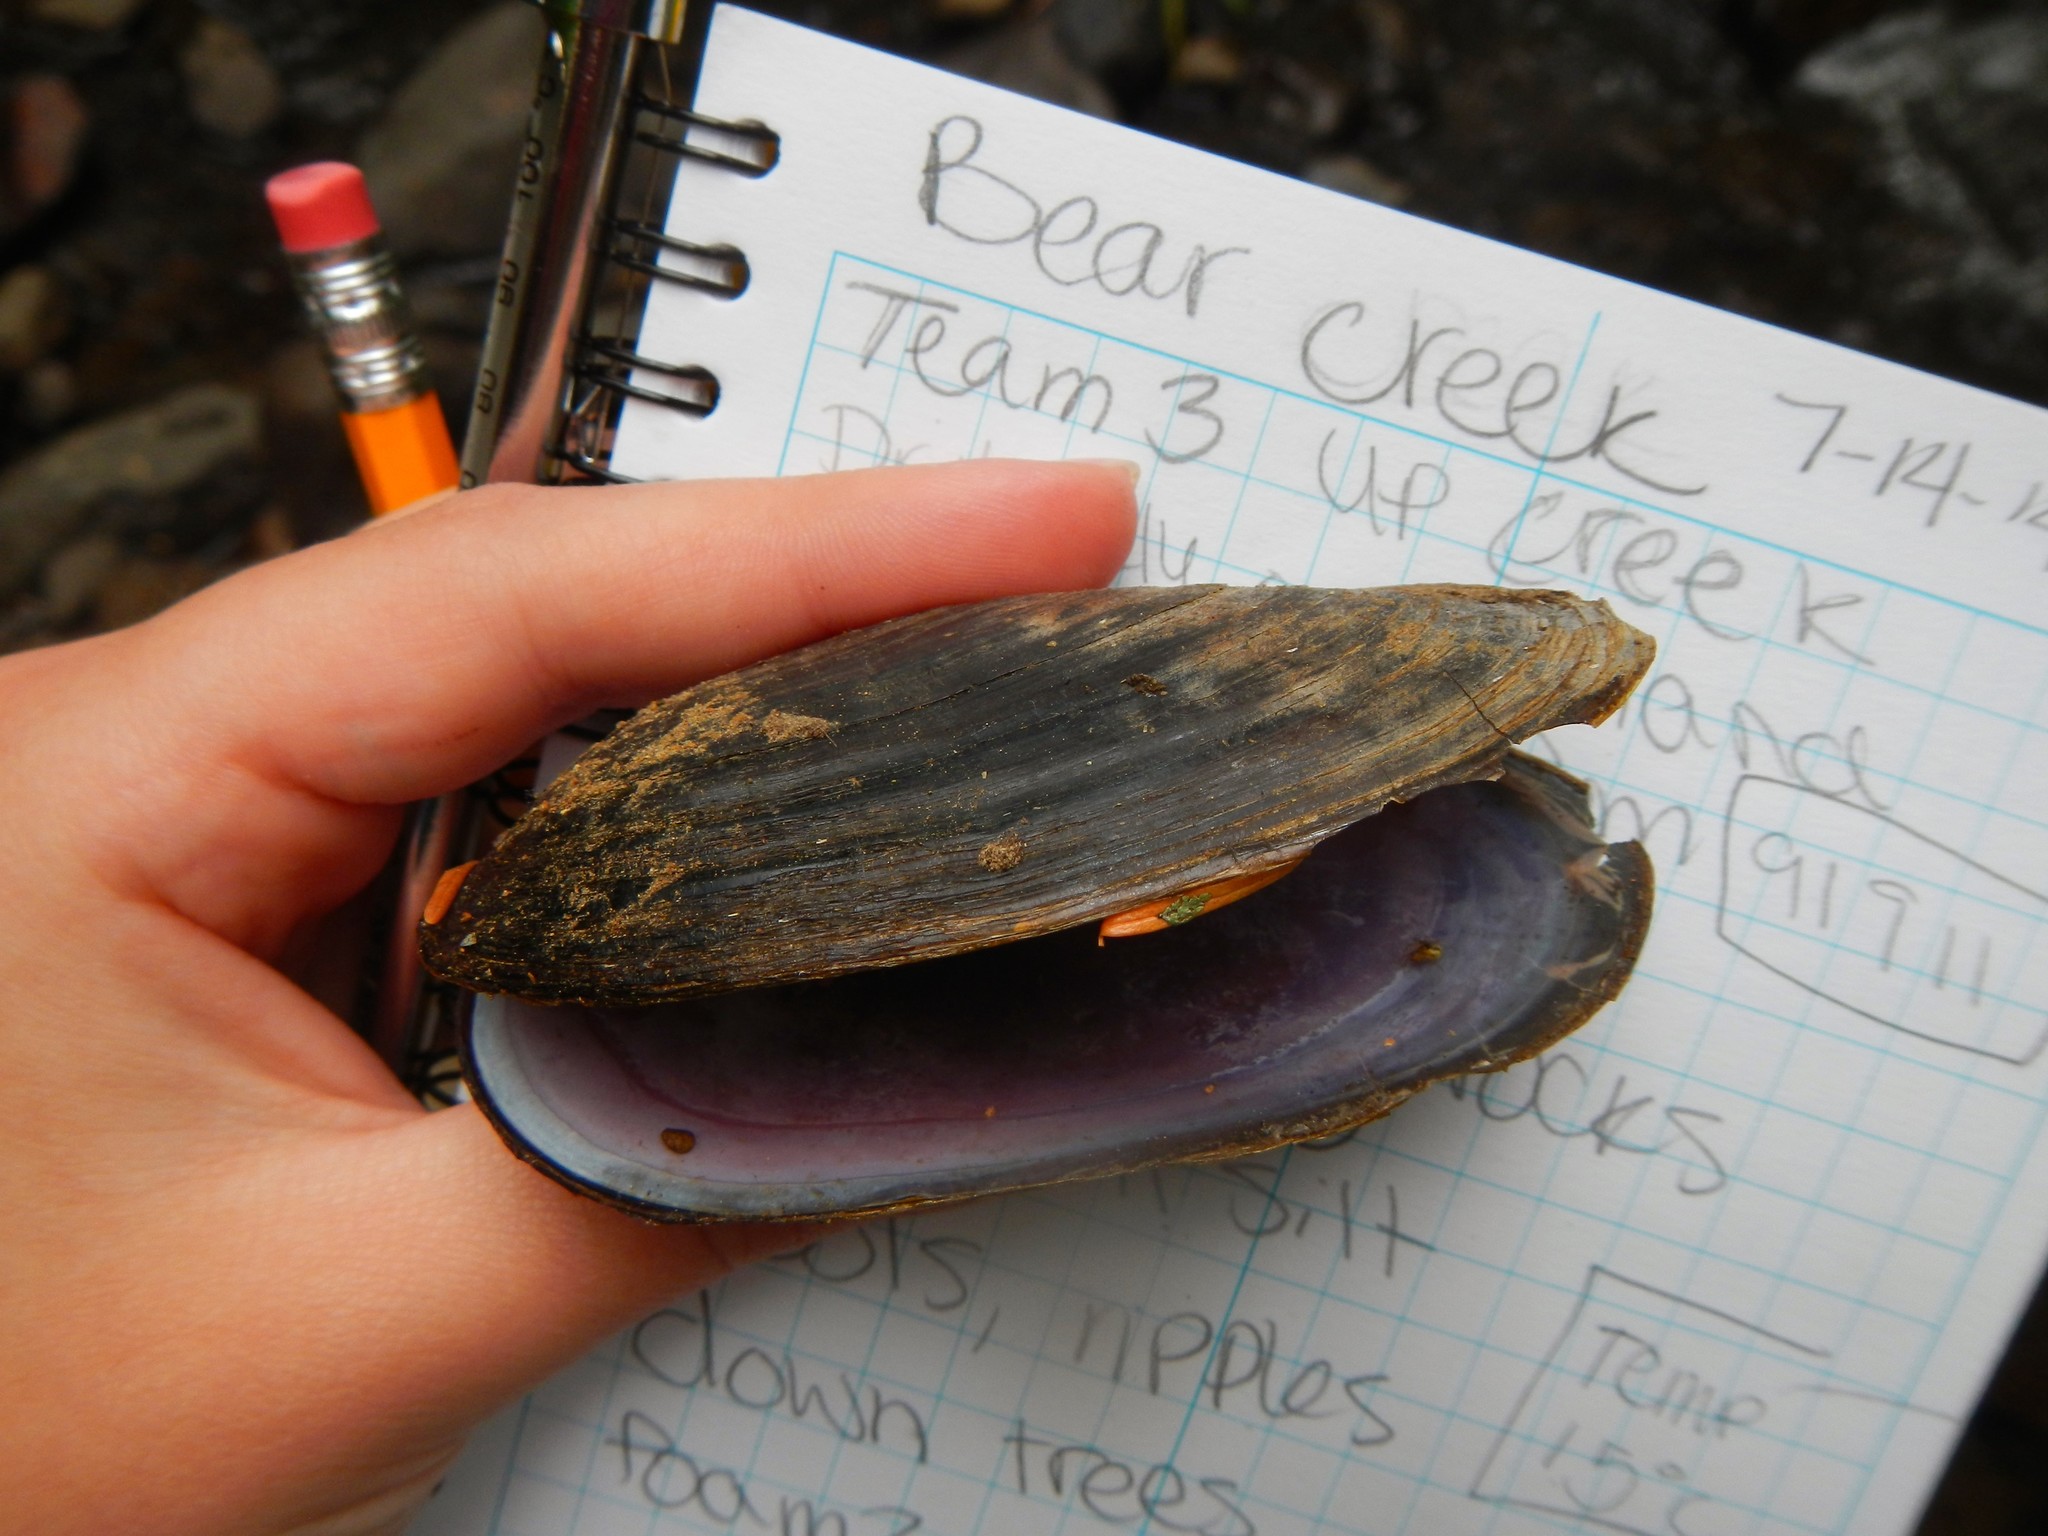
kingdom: Animalia
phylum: Mollusca
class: Bivalvia
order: Unionida
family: Margaritiferidae
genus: Margaritifera
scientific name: Margaritifera falcata
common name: Western pearlshell
